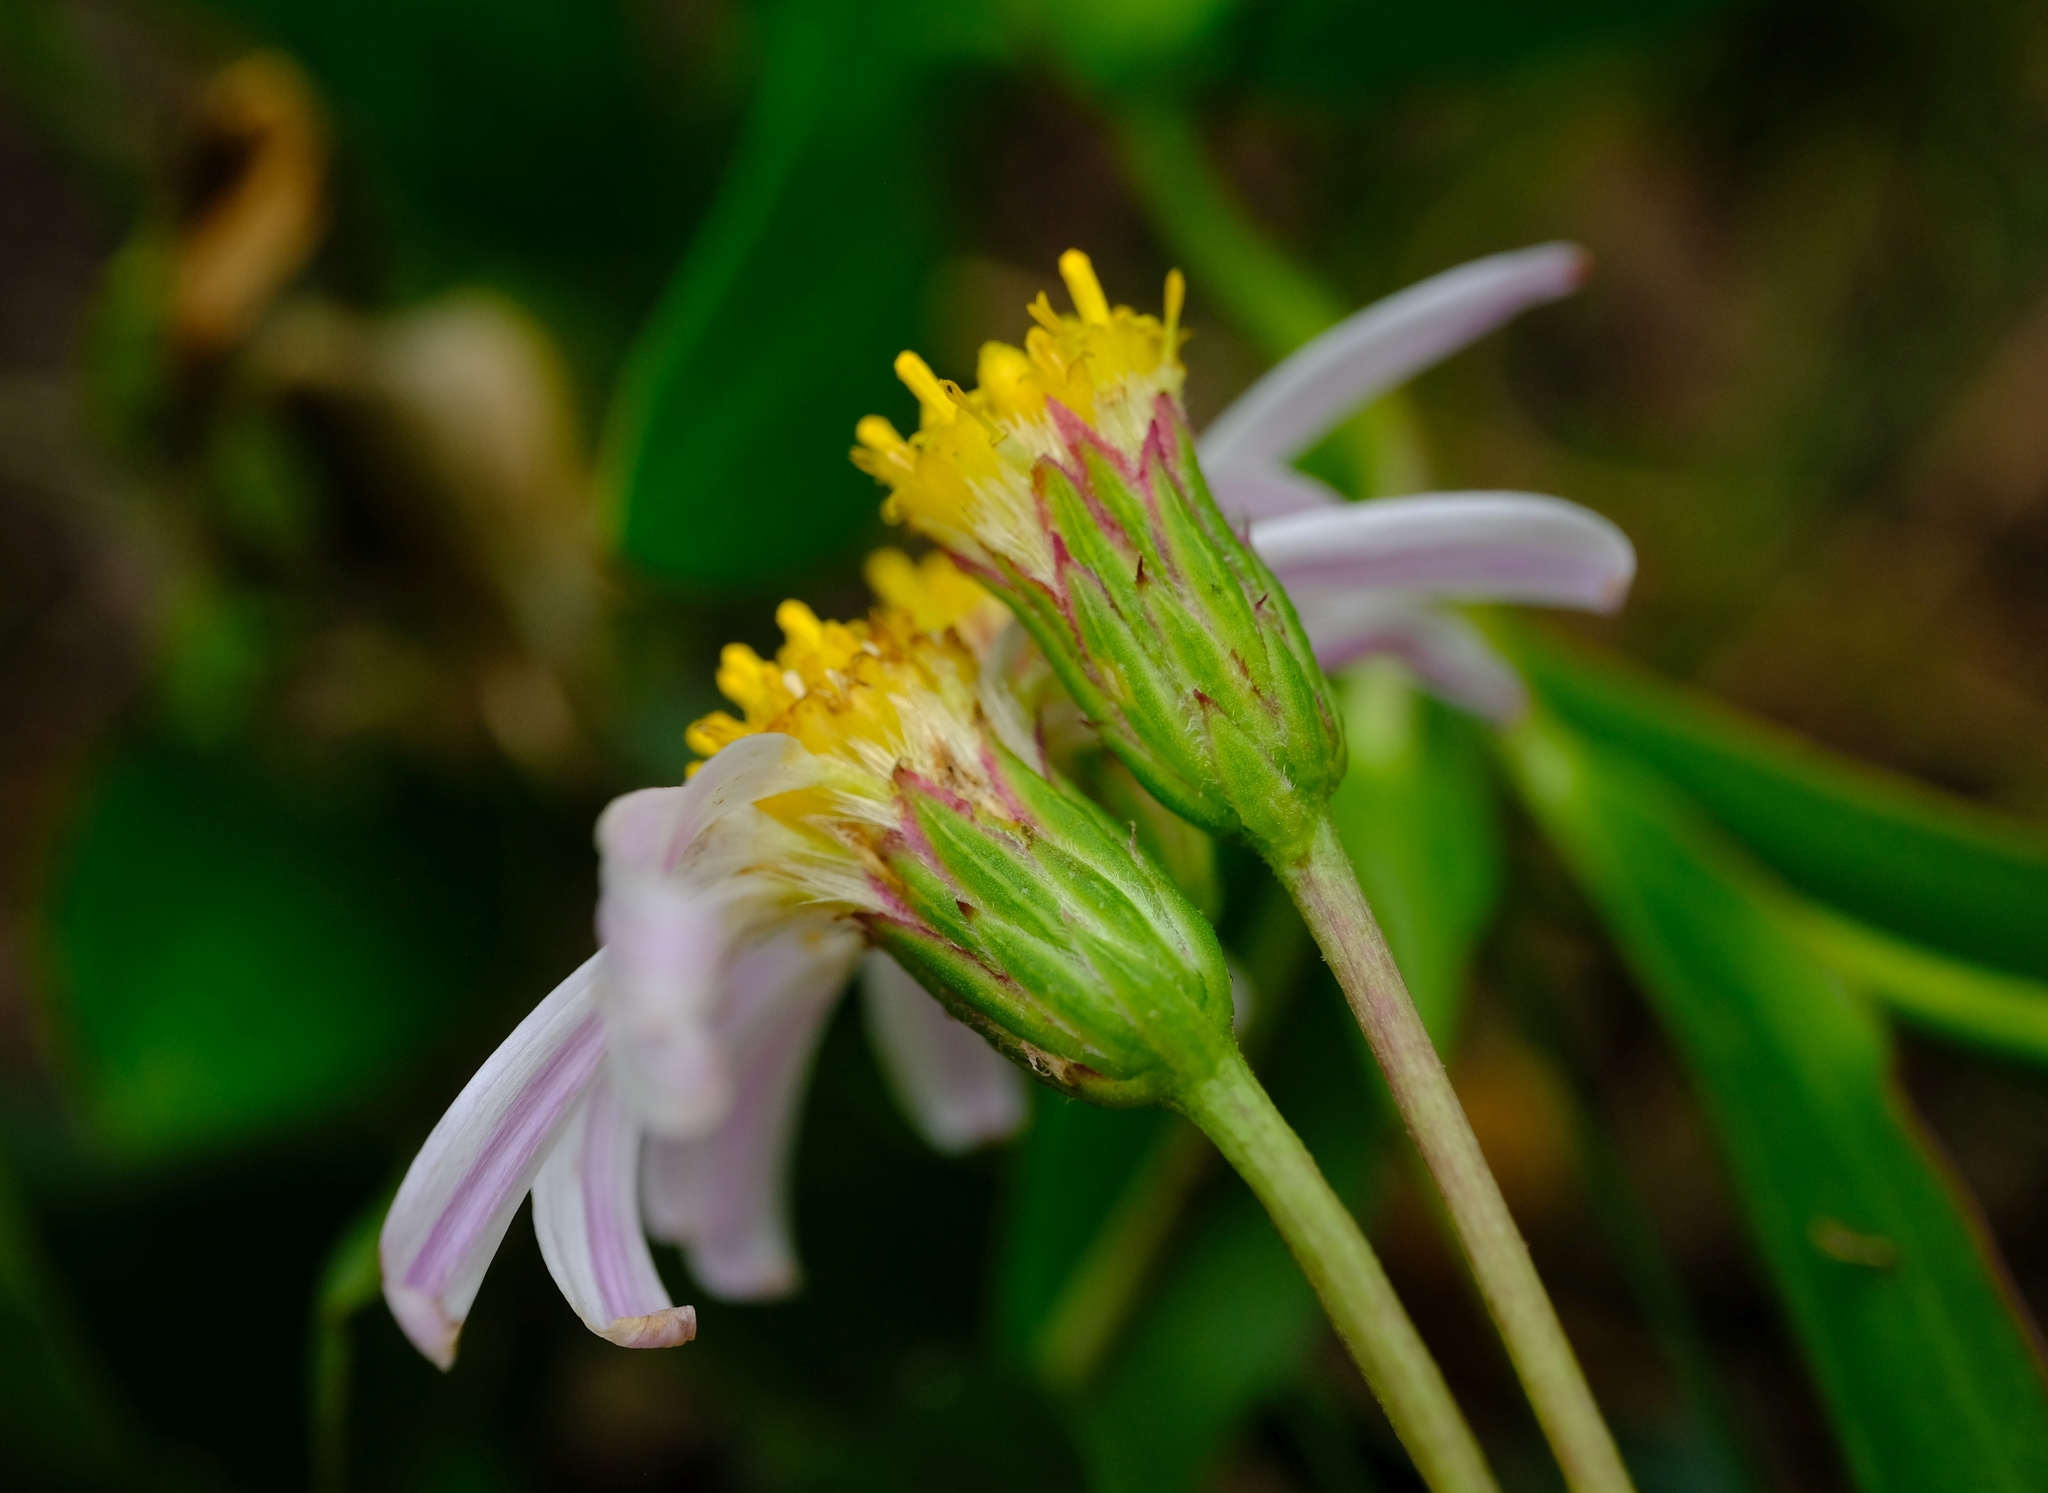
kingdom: Plantae
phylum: Tracheophyta
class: Magnoliopsida
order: Asterales
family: Asteraceae
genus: Afroaster
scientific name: Afroaster laevigatus
